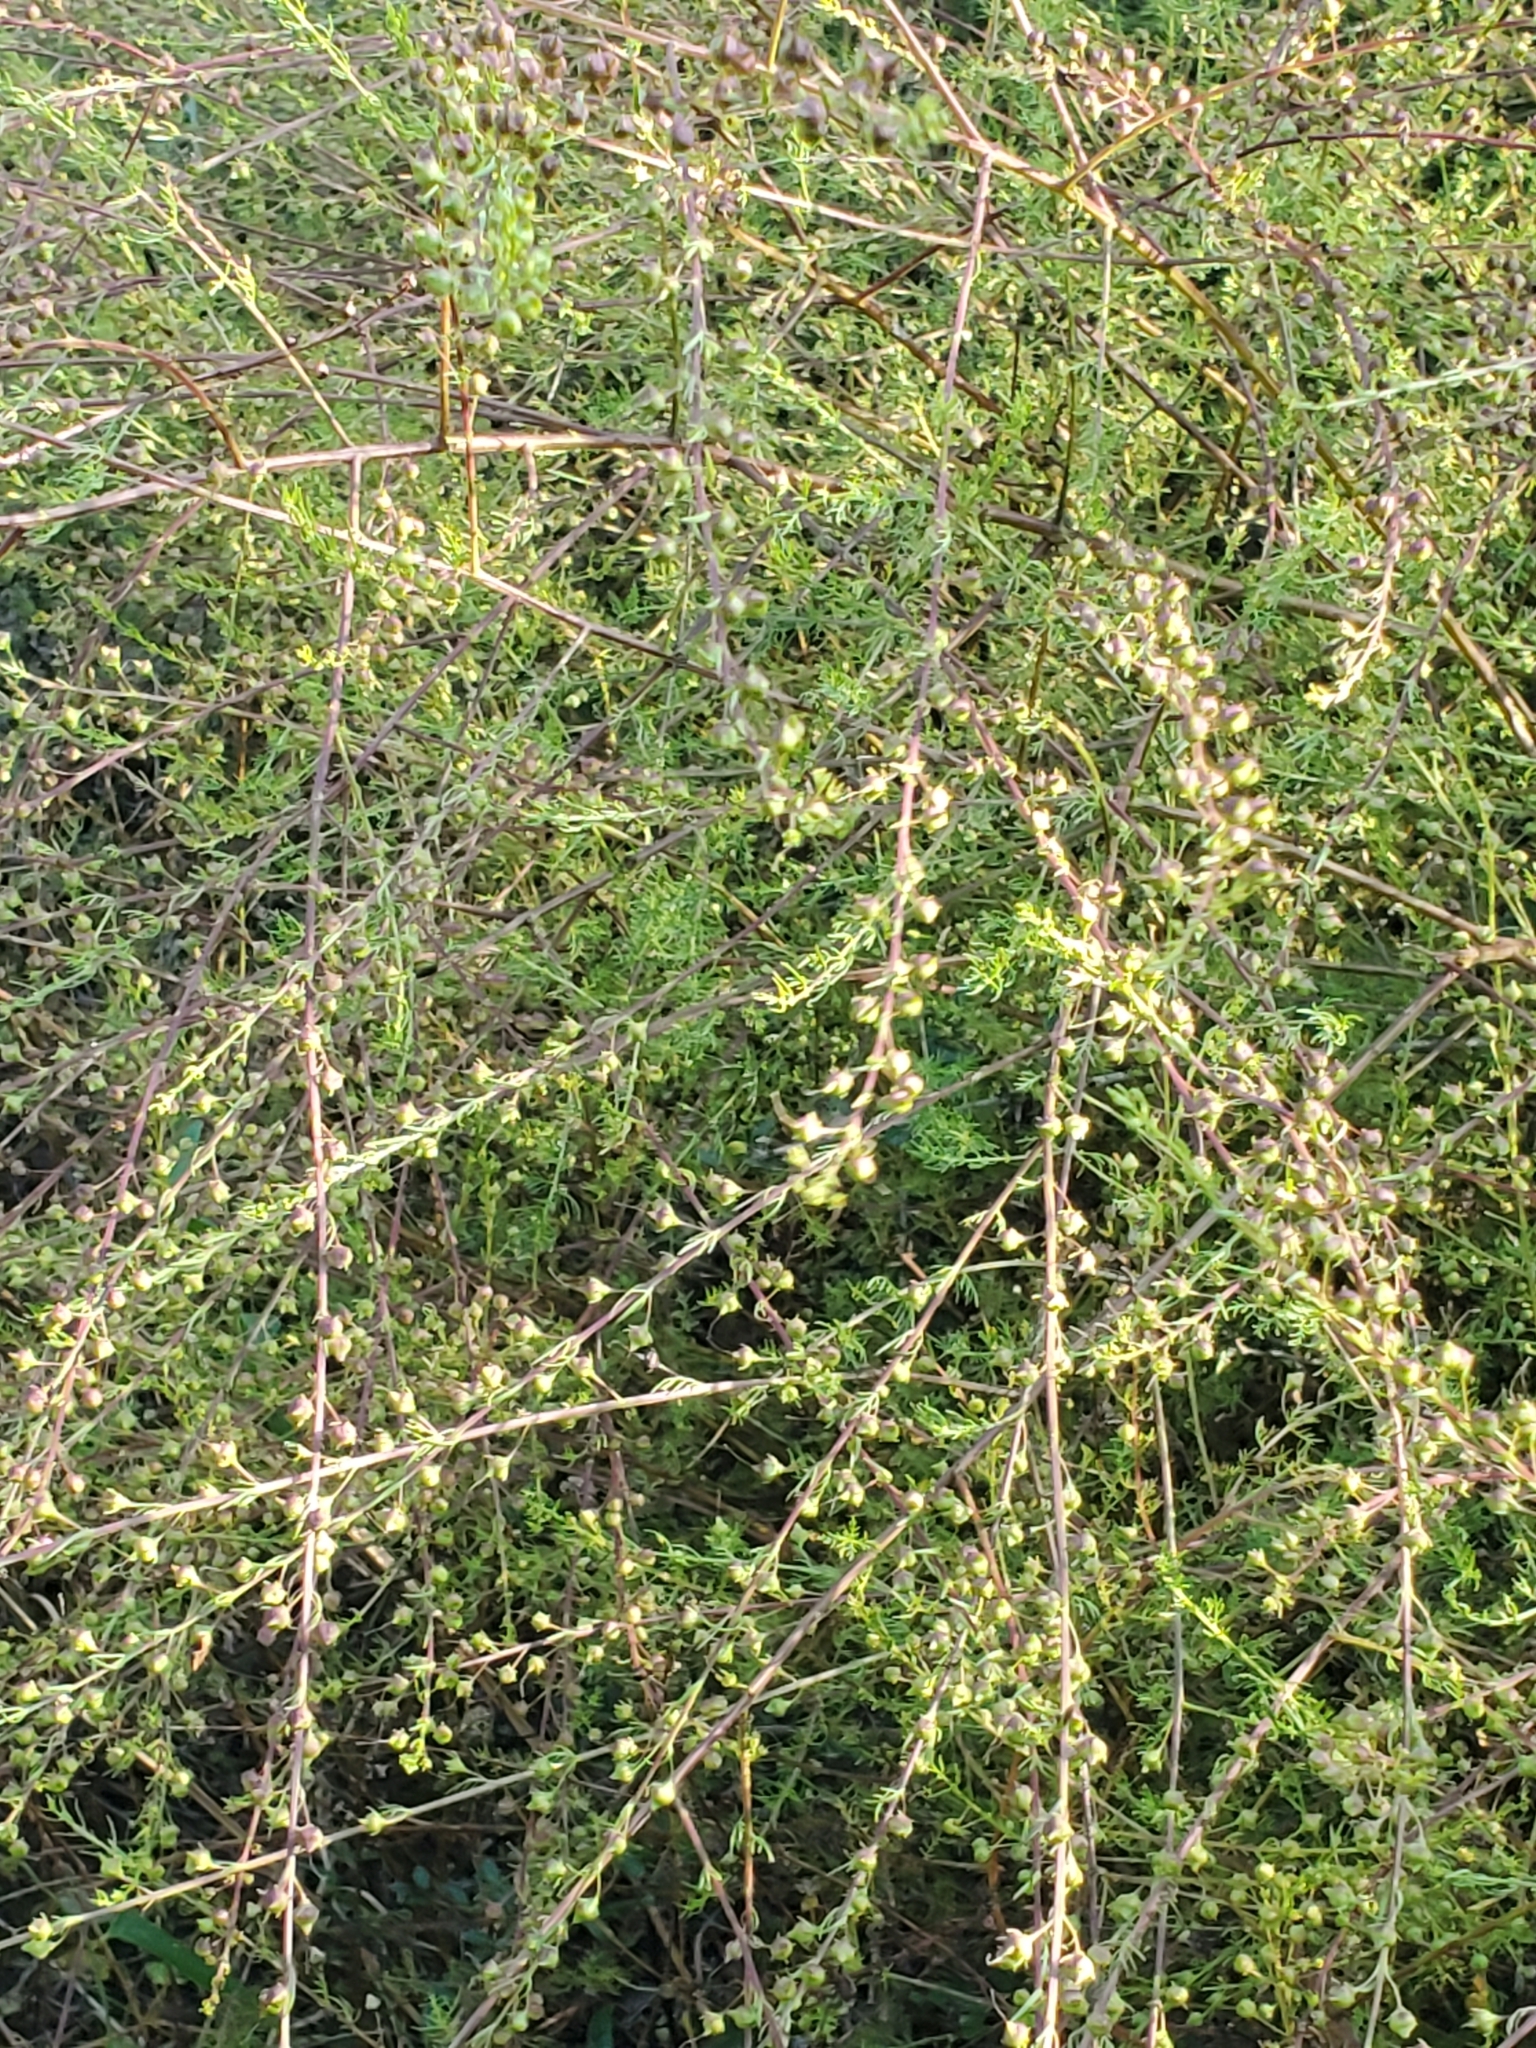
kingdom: Plantae
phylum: Tracheophyta
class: Magnoliopsida
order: Lamiales
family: Orobanchaceae
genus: Seymeria
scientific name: Seymeria cassioides
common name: Yaupon black-senna
